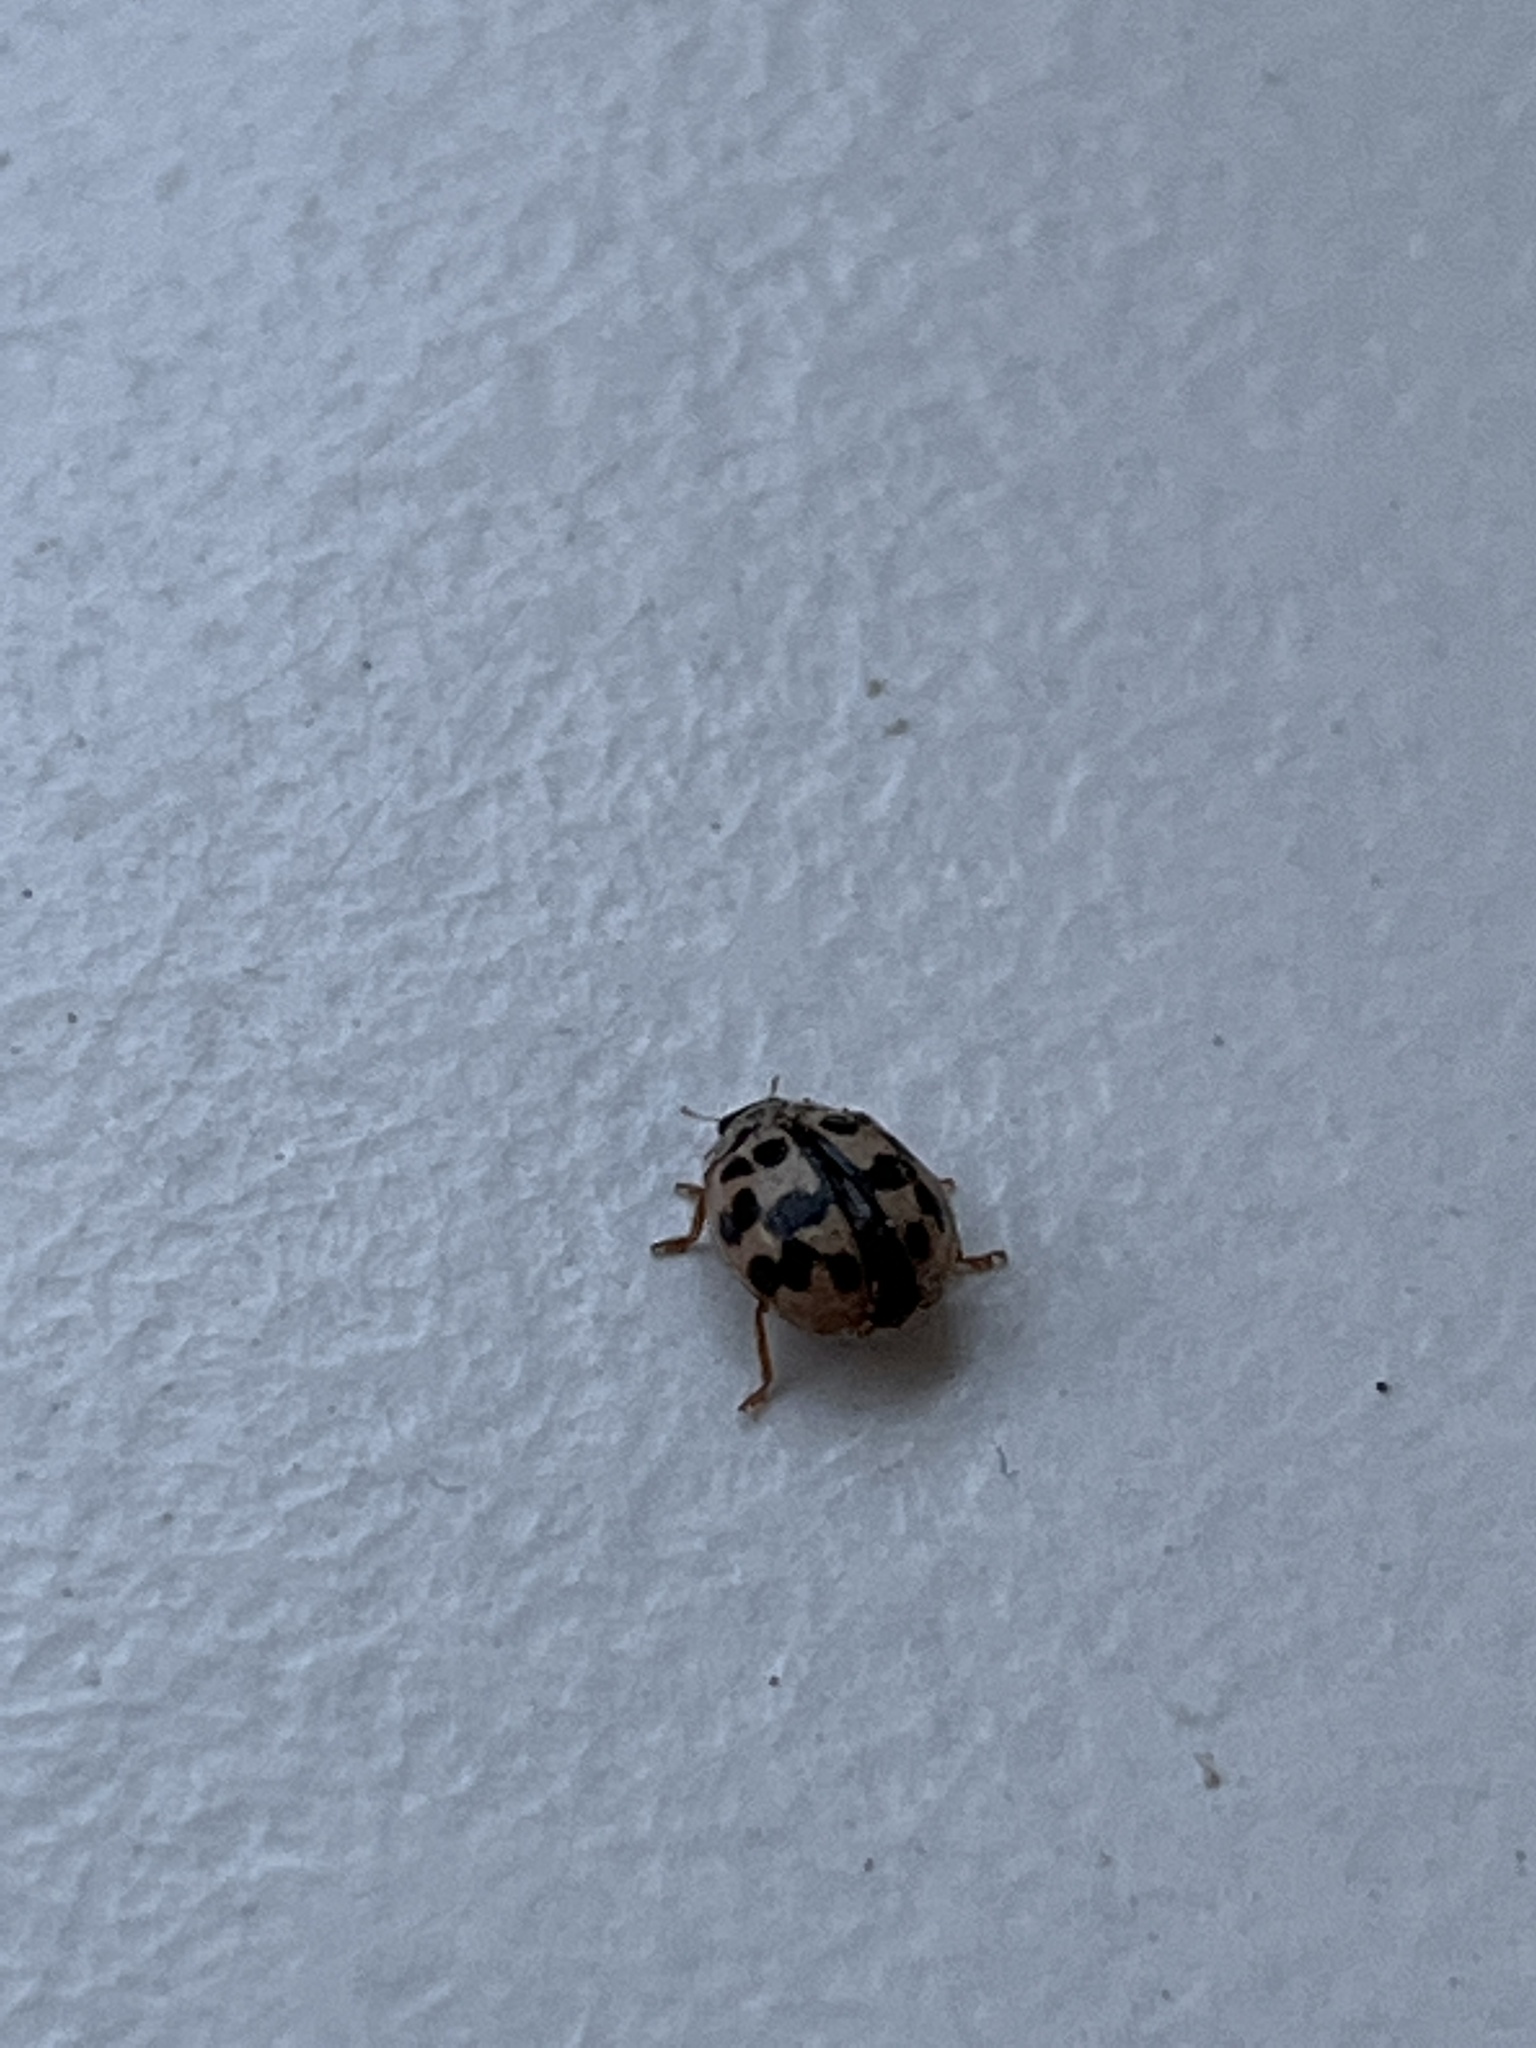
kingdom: Animalia
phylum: Arthropoda
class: Insecta
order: Coleoptera
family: Coccinellidae
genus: Oenopia
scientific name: Oenopia conglobata
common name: Ladybird beetle
